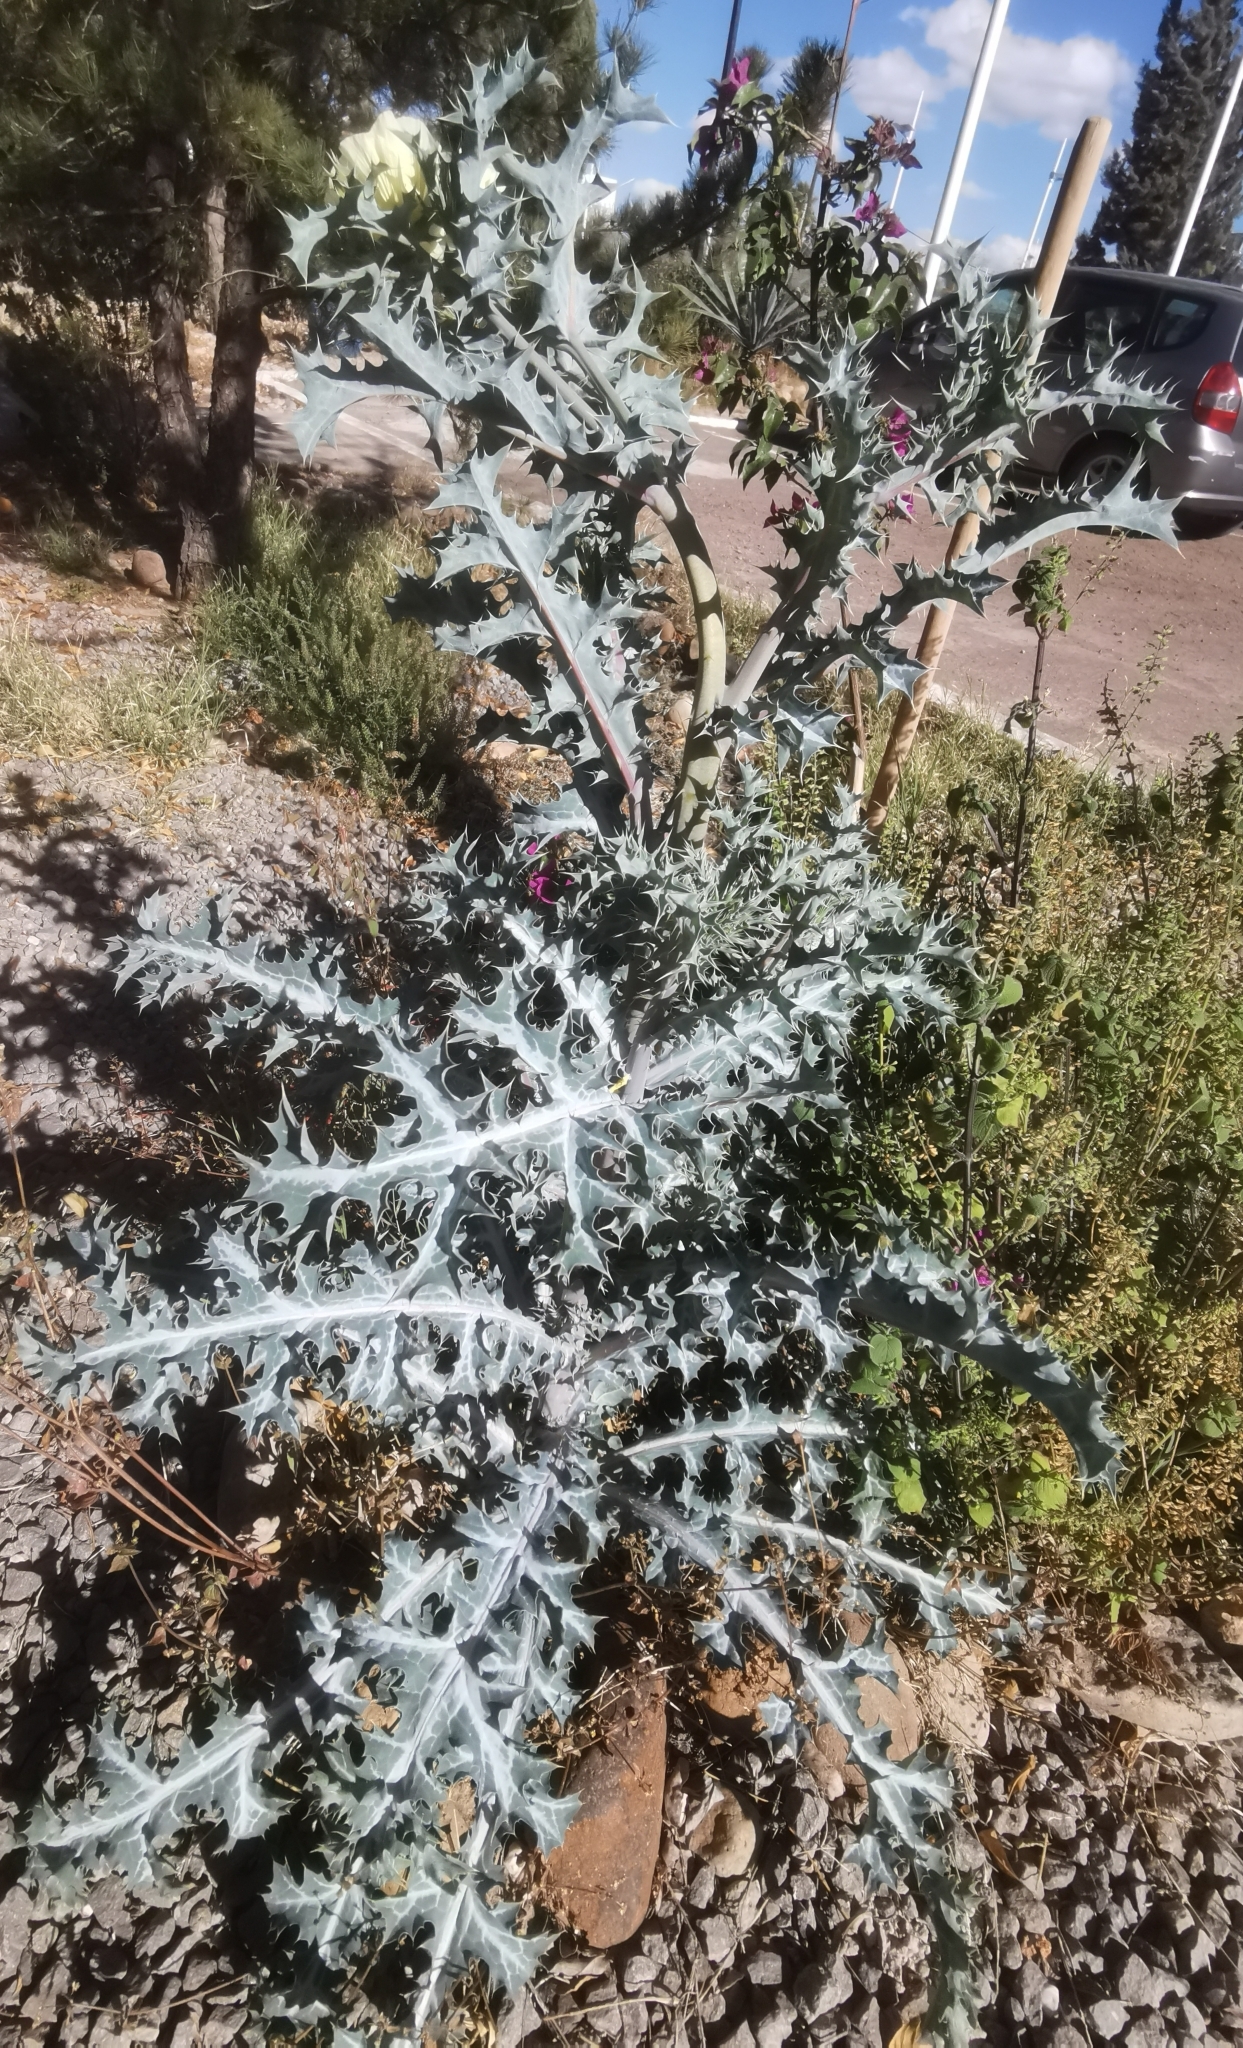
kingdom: Plantae
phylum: Tracheophyta
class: Magnoliopsida
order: Ranunculales
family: Papaveraceae
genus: Argemone
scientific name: Argemone ochroleuca
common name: White-flower mexican-poppy
